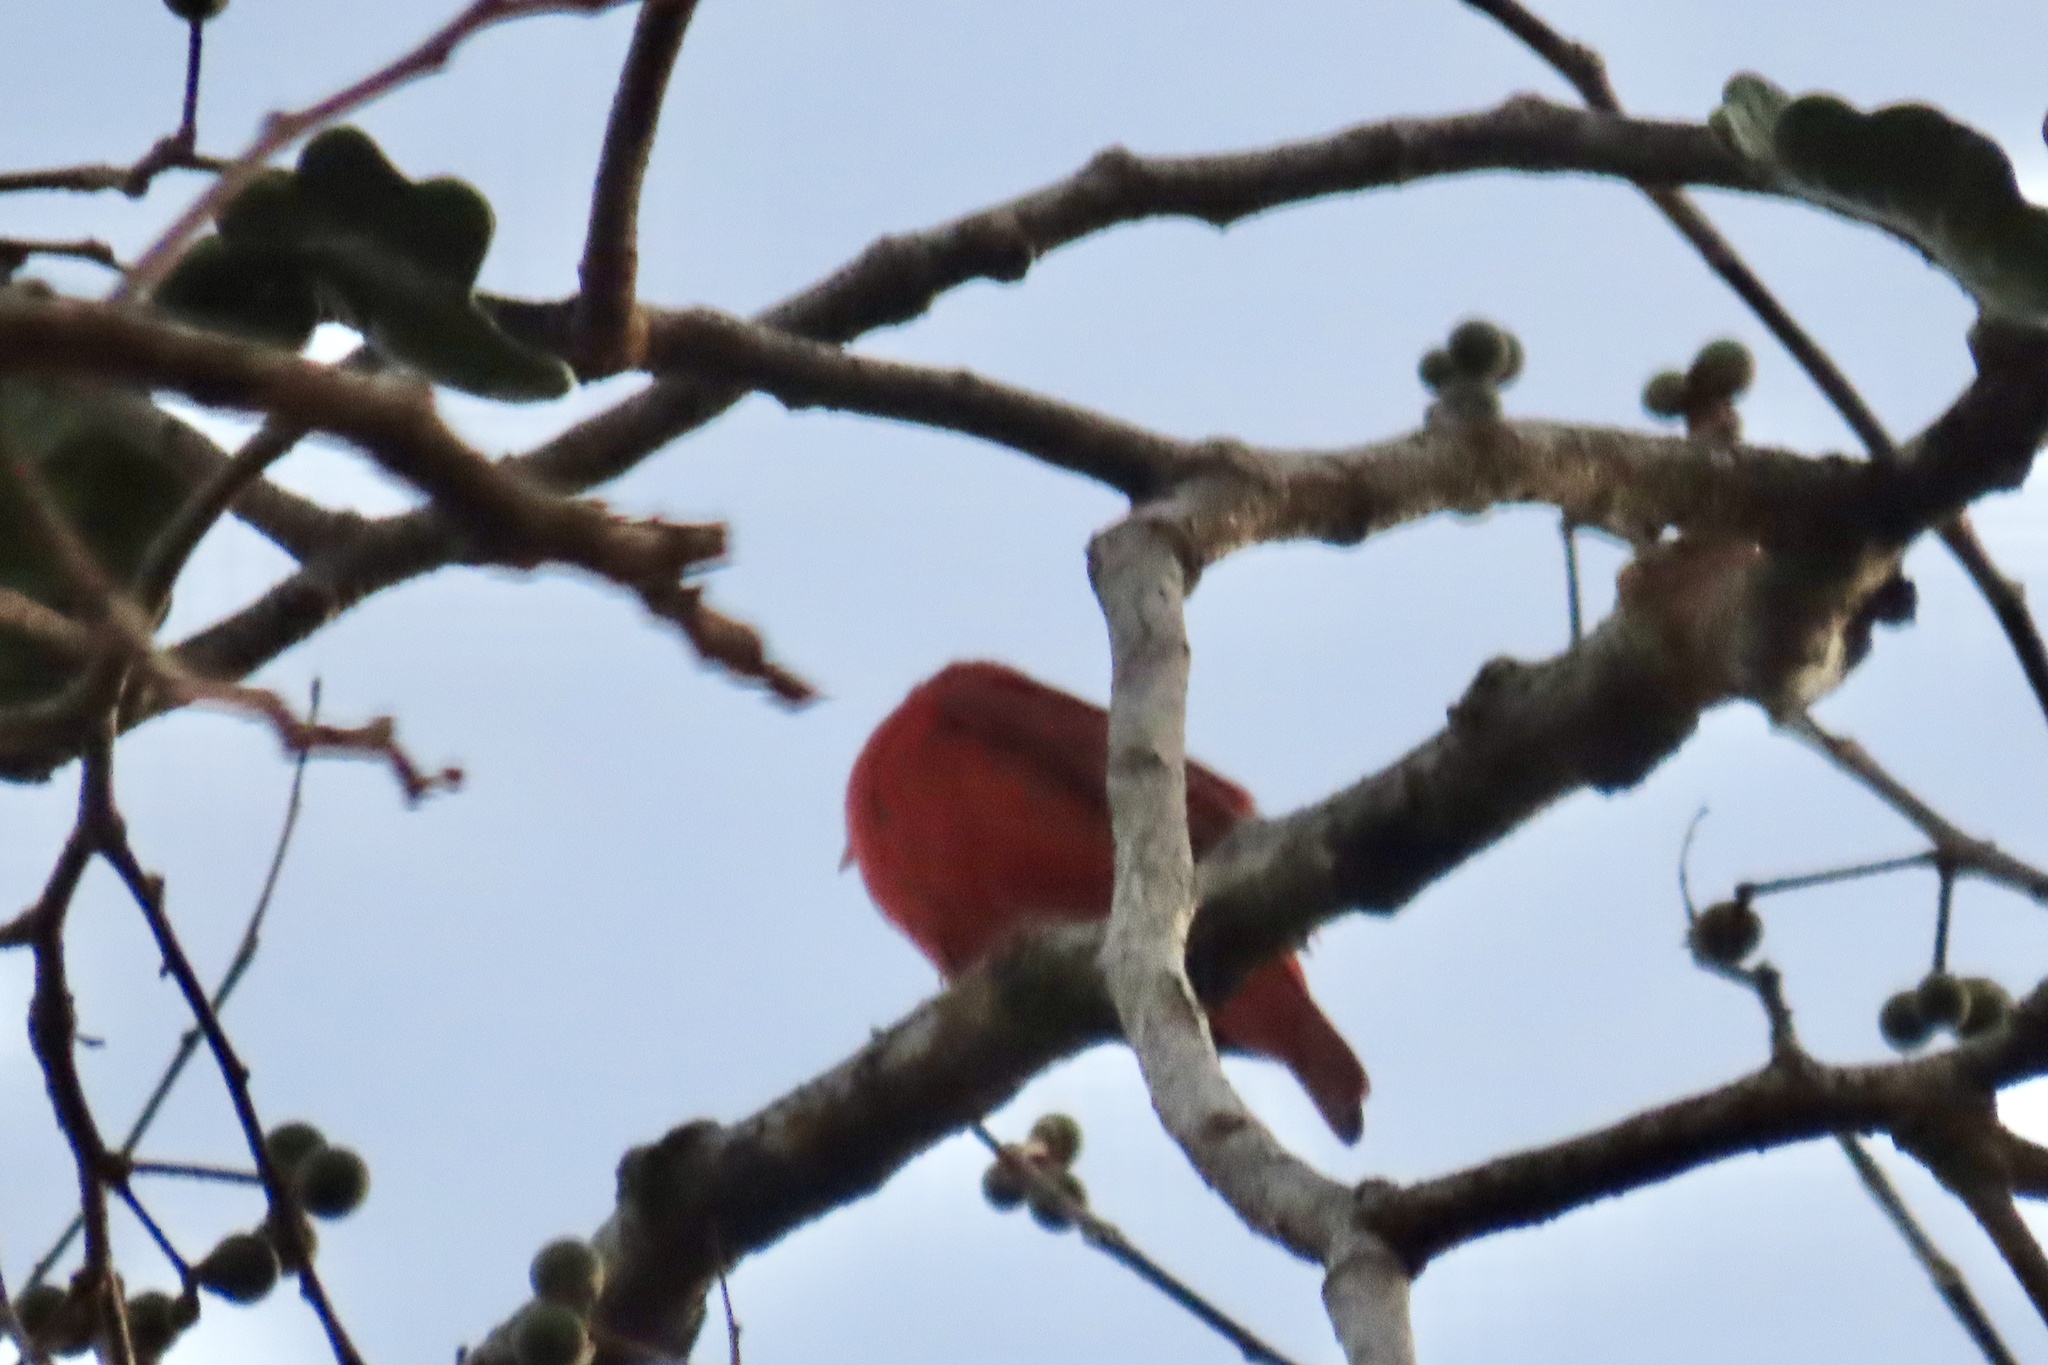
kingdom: Animalia
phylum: Chordata
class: Aves
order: Passeriformes
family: Cardinalidae
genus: Piranga
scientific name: Piranga rubra
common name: Summer tanager
